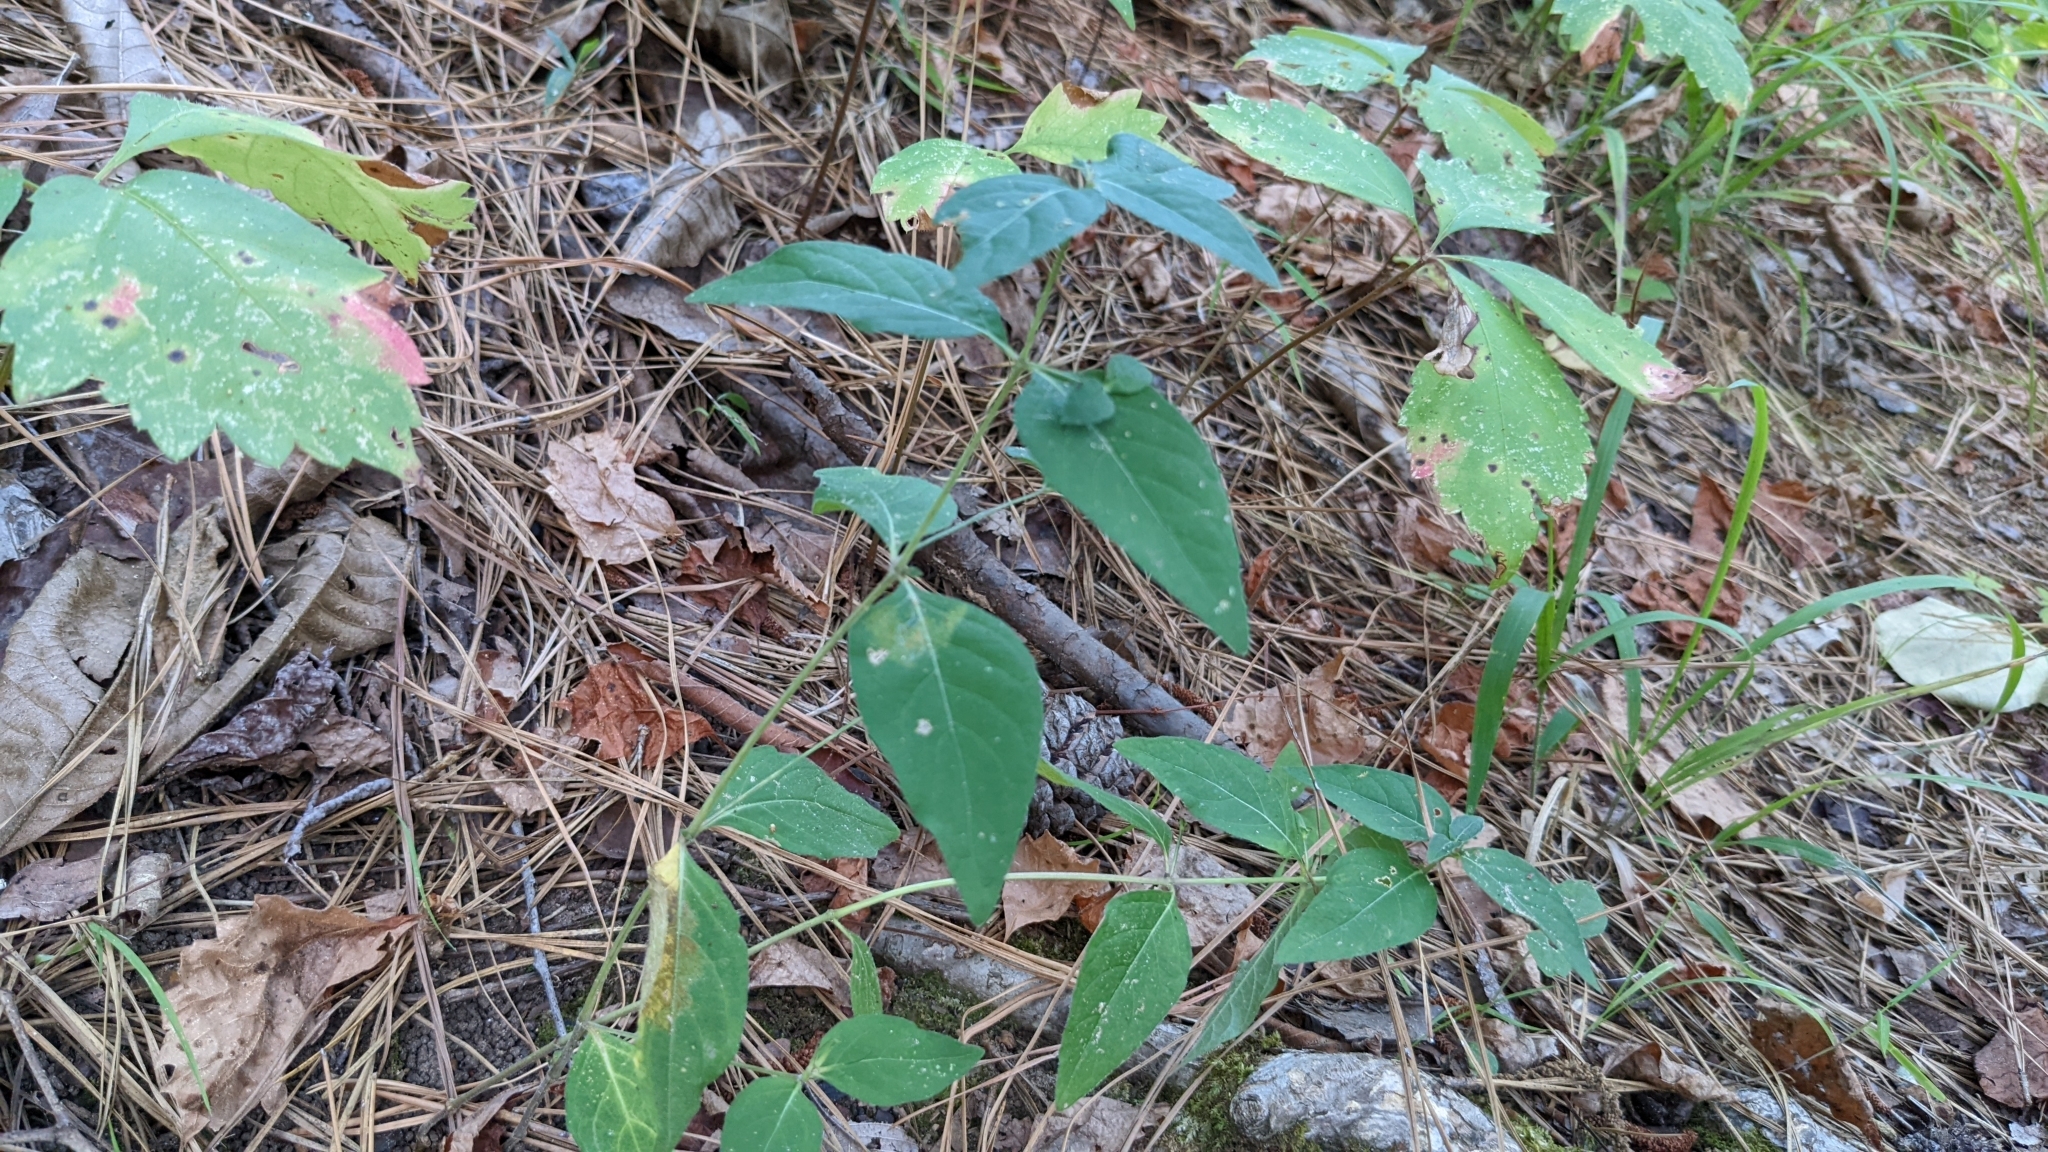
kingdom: Plantae
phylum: Tracheophyta
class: Magnoliopsida
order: Lamiales
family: Acanthaceae
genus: Ruellia
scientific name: Ruellia pedunculata
